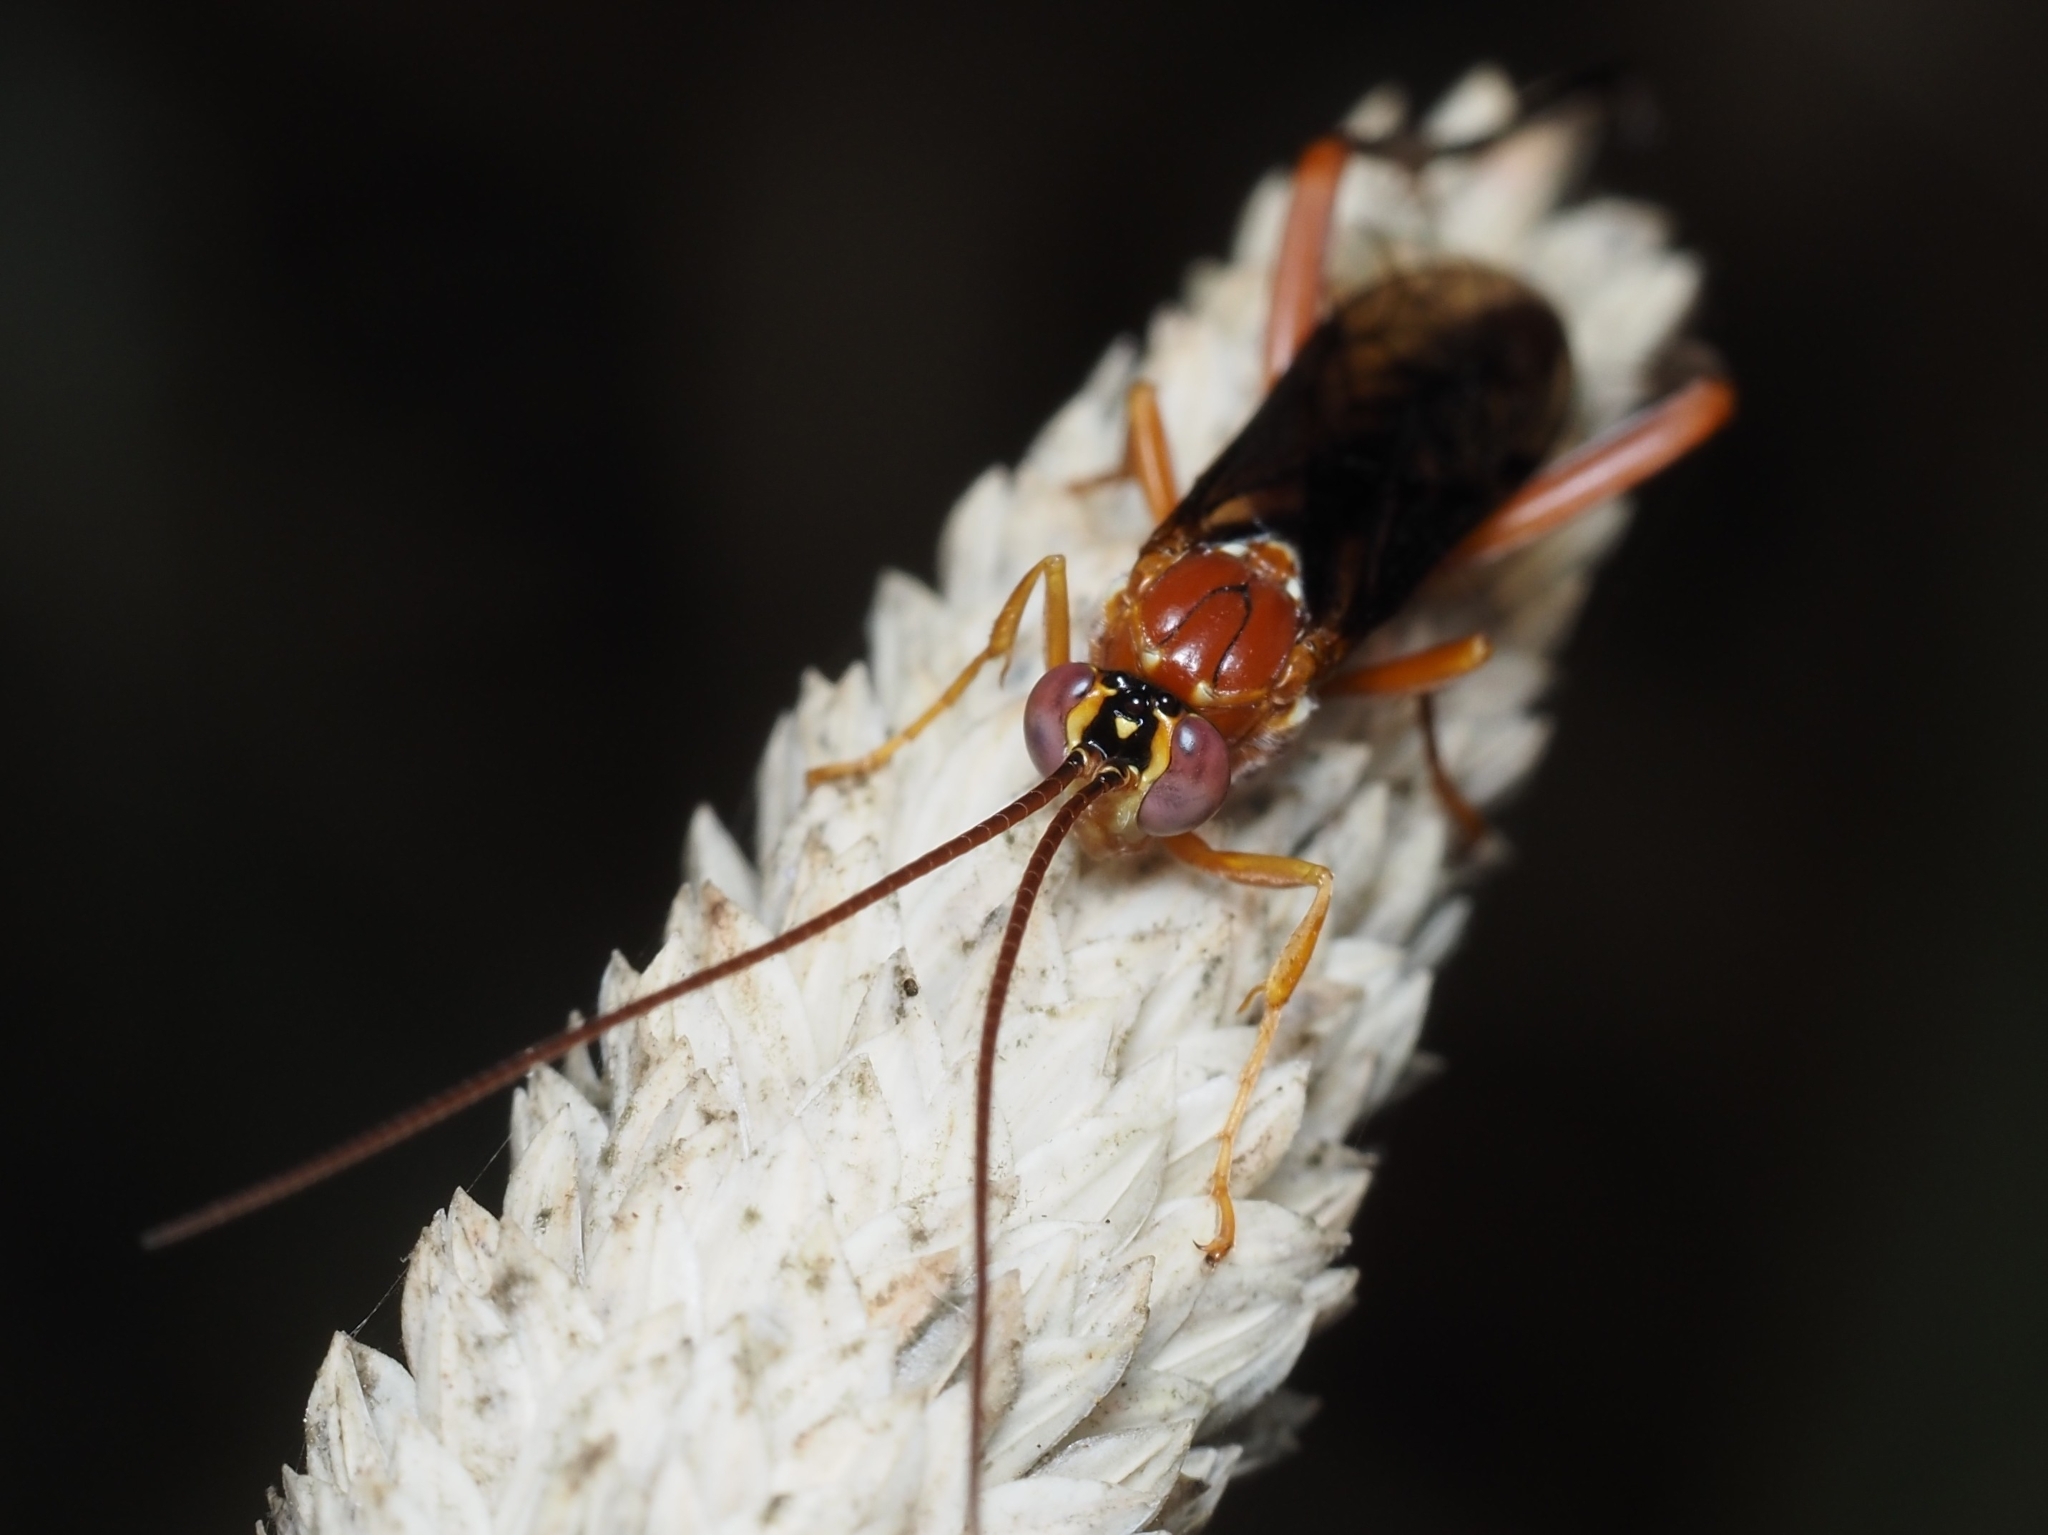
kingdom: Animalia
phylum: Arthropoda
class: Insecta
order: Hymenoptera
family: Ichneumonidae
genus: Lissopimpla
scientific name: Lissopimpla excelsa
